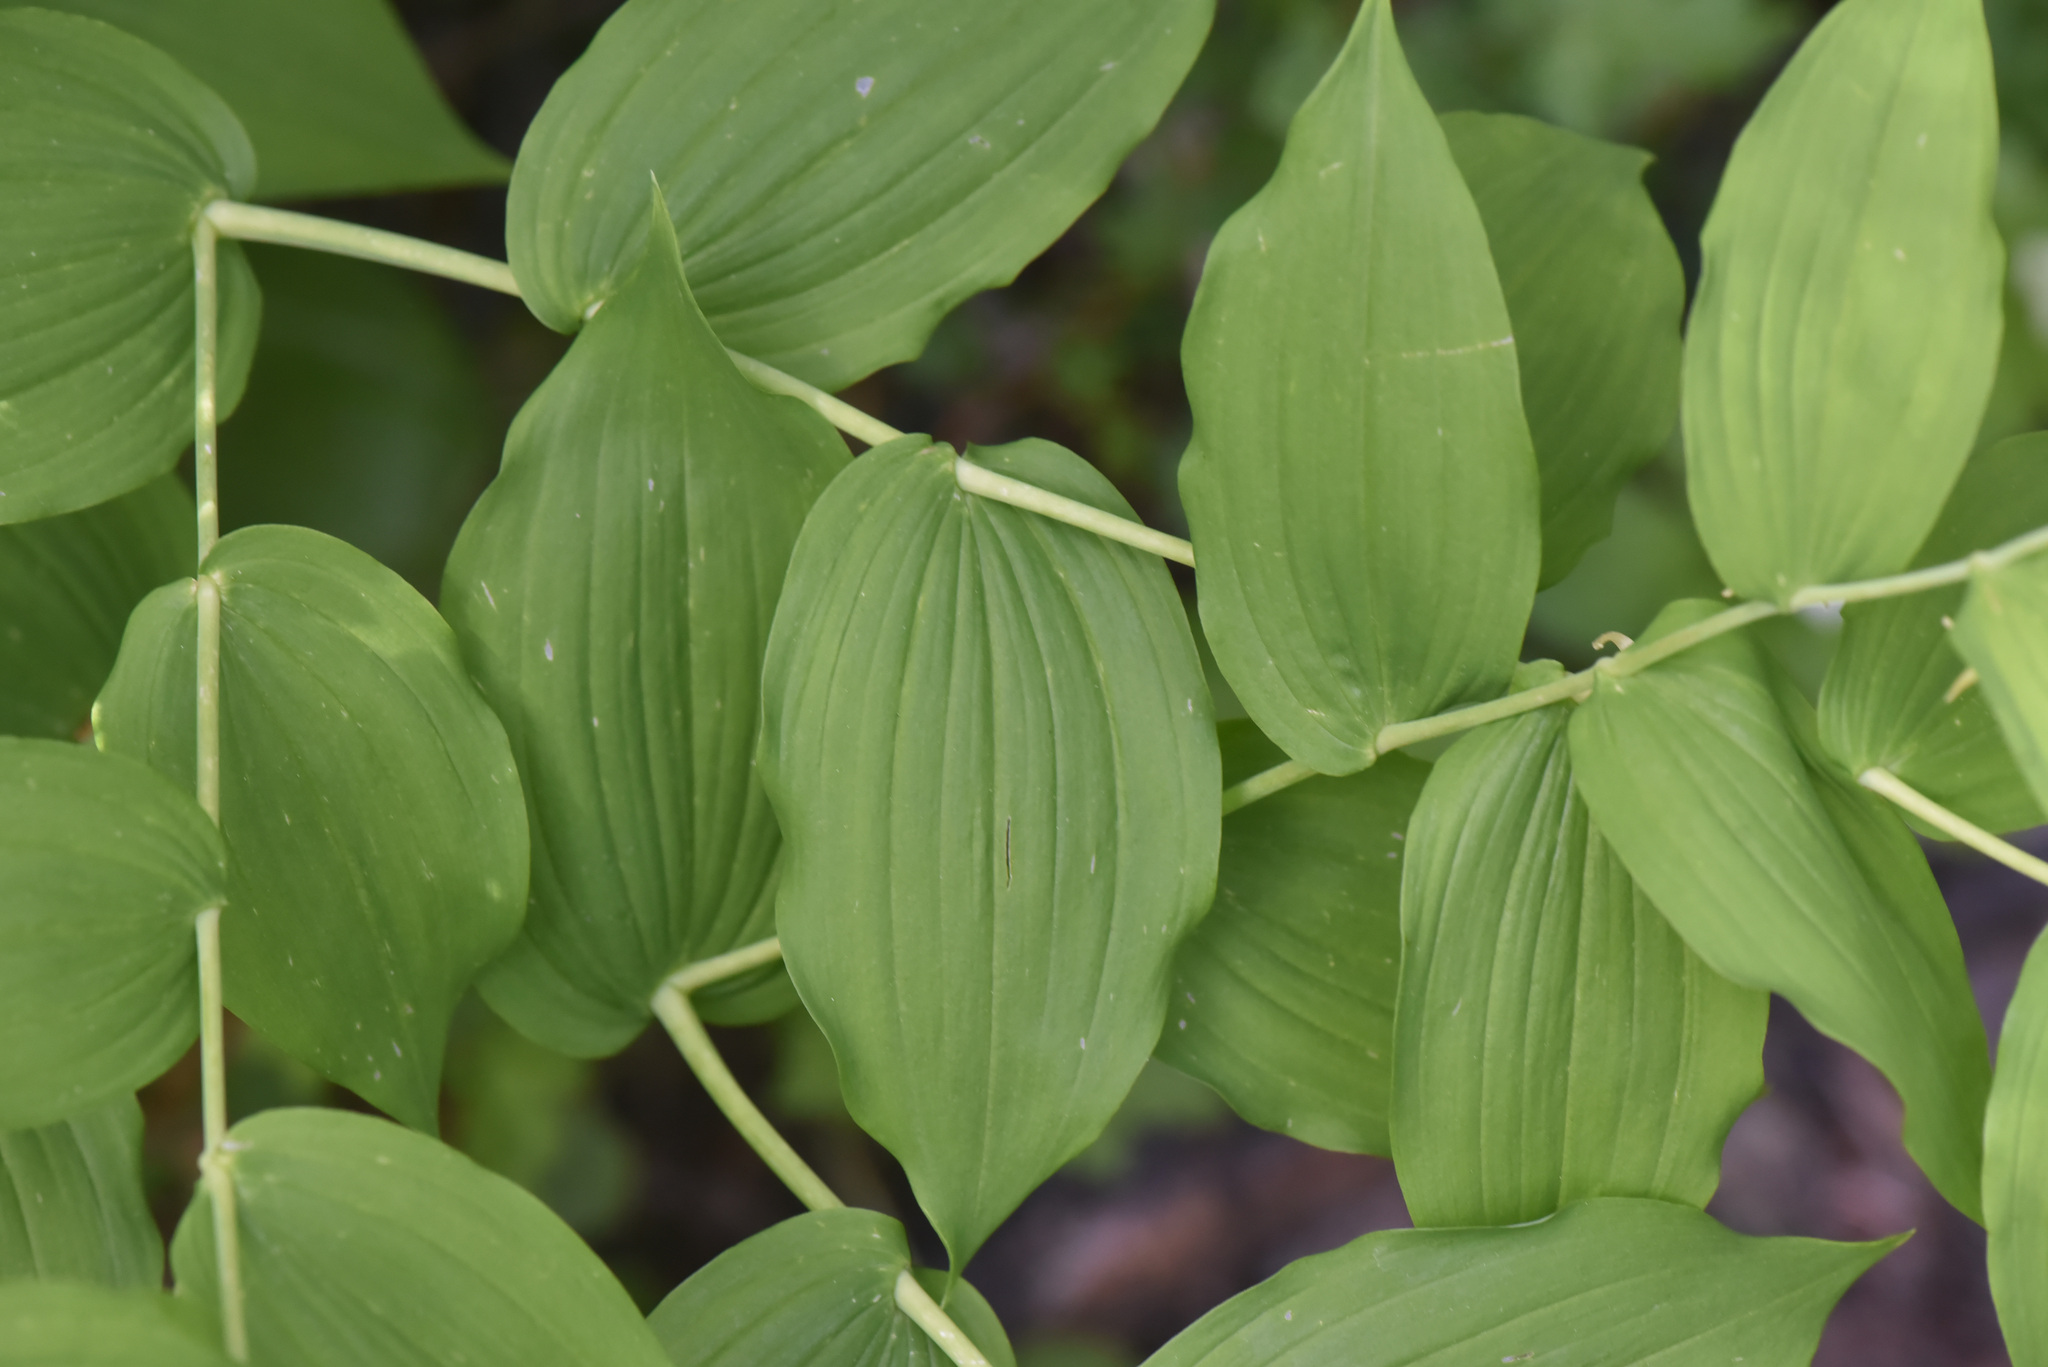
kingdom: Plantae
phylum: Tracheophyta
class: Liliopsida
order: Liliales
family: Liliaceae
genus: Streptopus
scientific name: Streptopus amplexifolius
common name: Clasp twisted stalk
